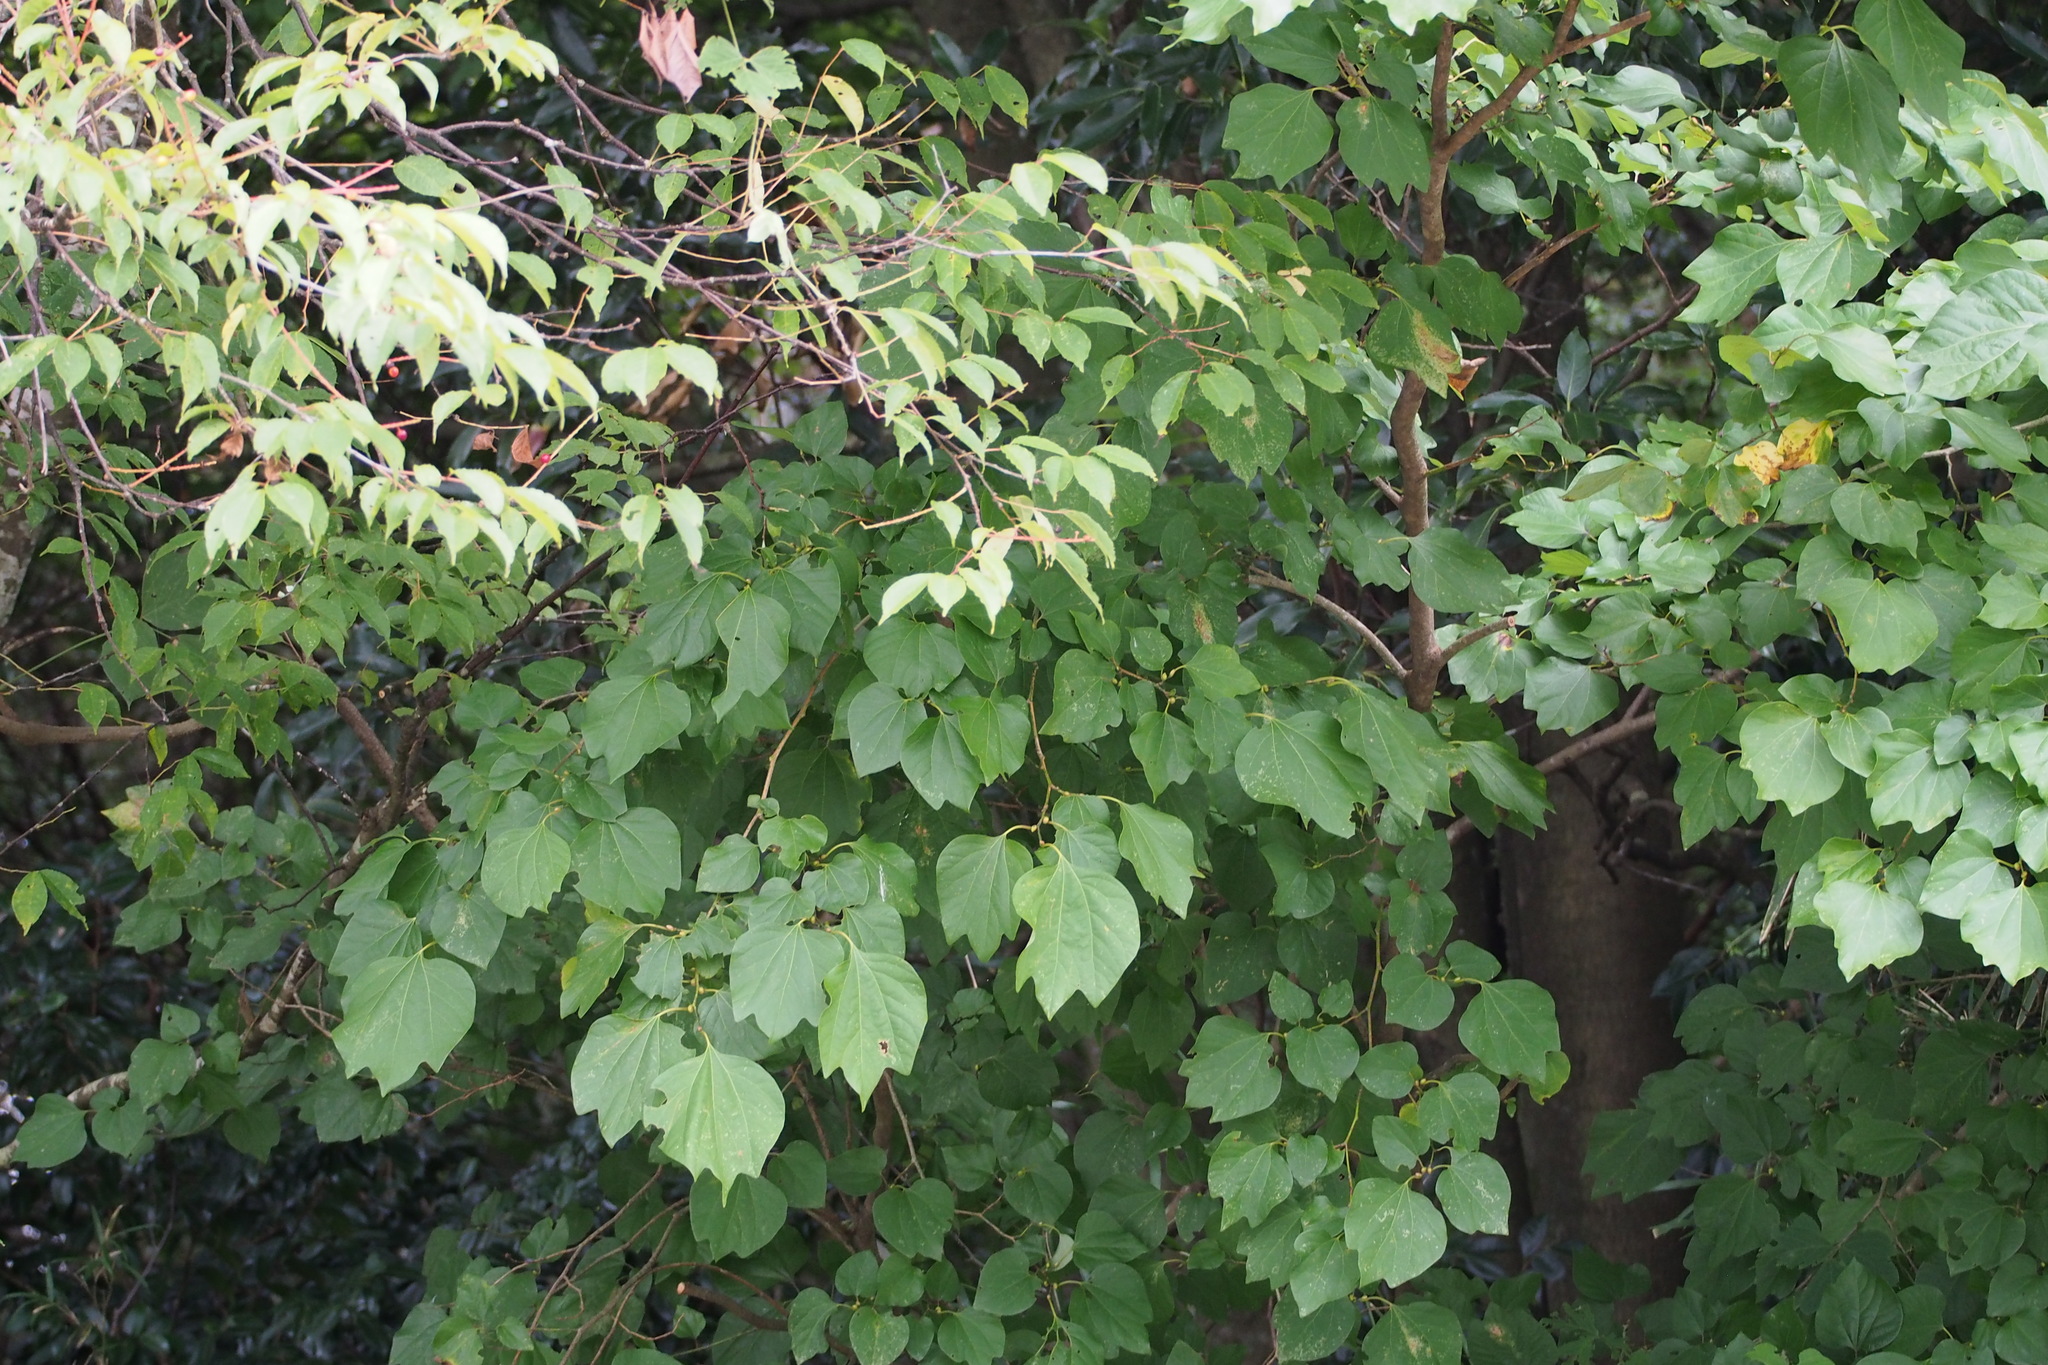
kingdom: Plantae
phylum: Tracheophyta
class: Magnoliopsida
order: Laurales
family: Lauraceae
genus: Lindera
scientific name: Lindera obtusiloba
